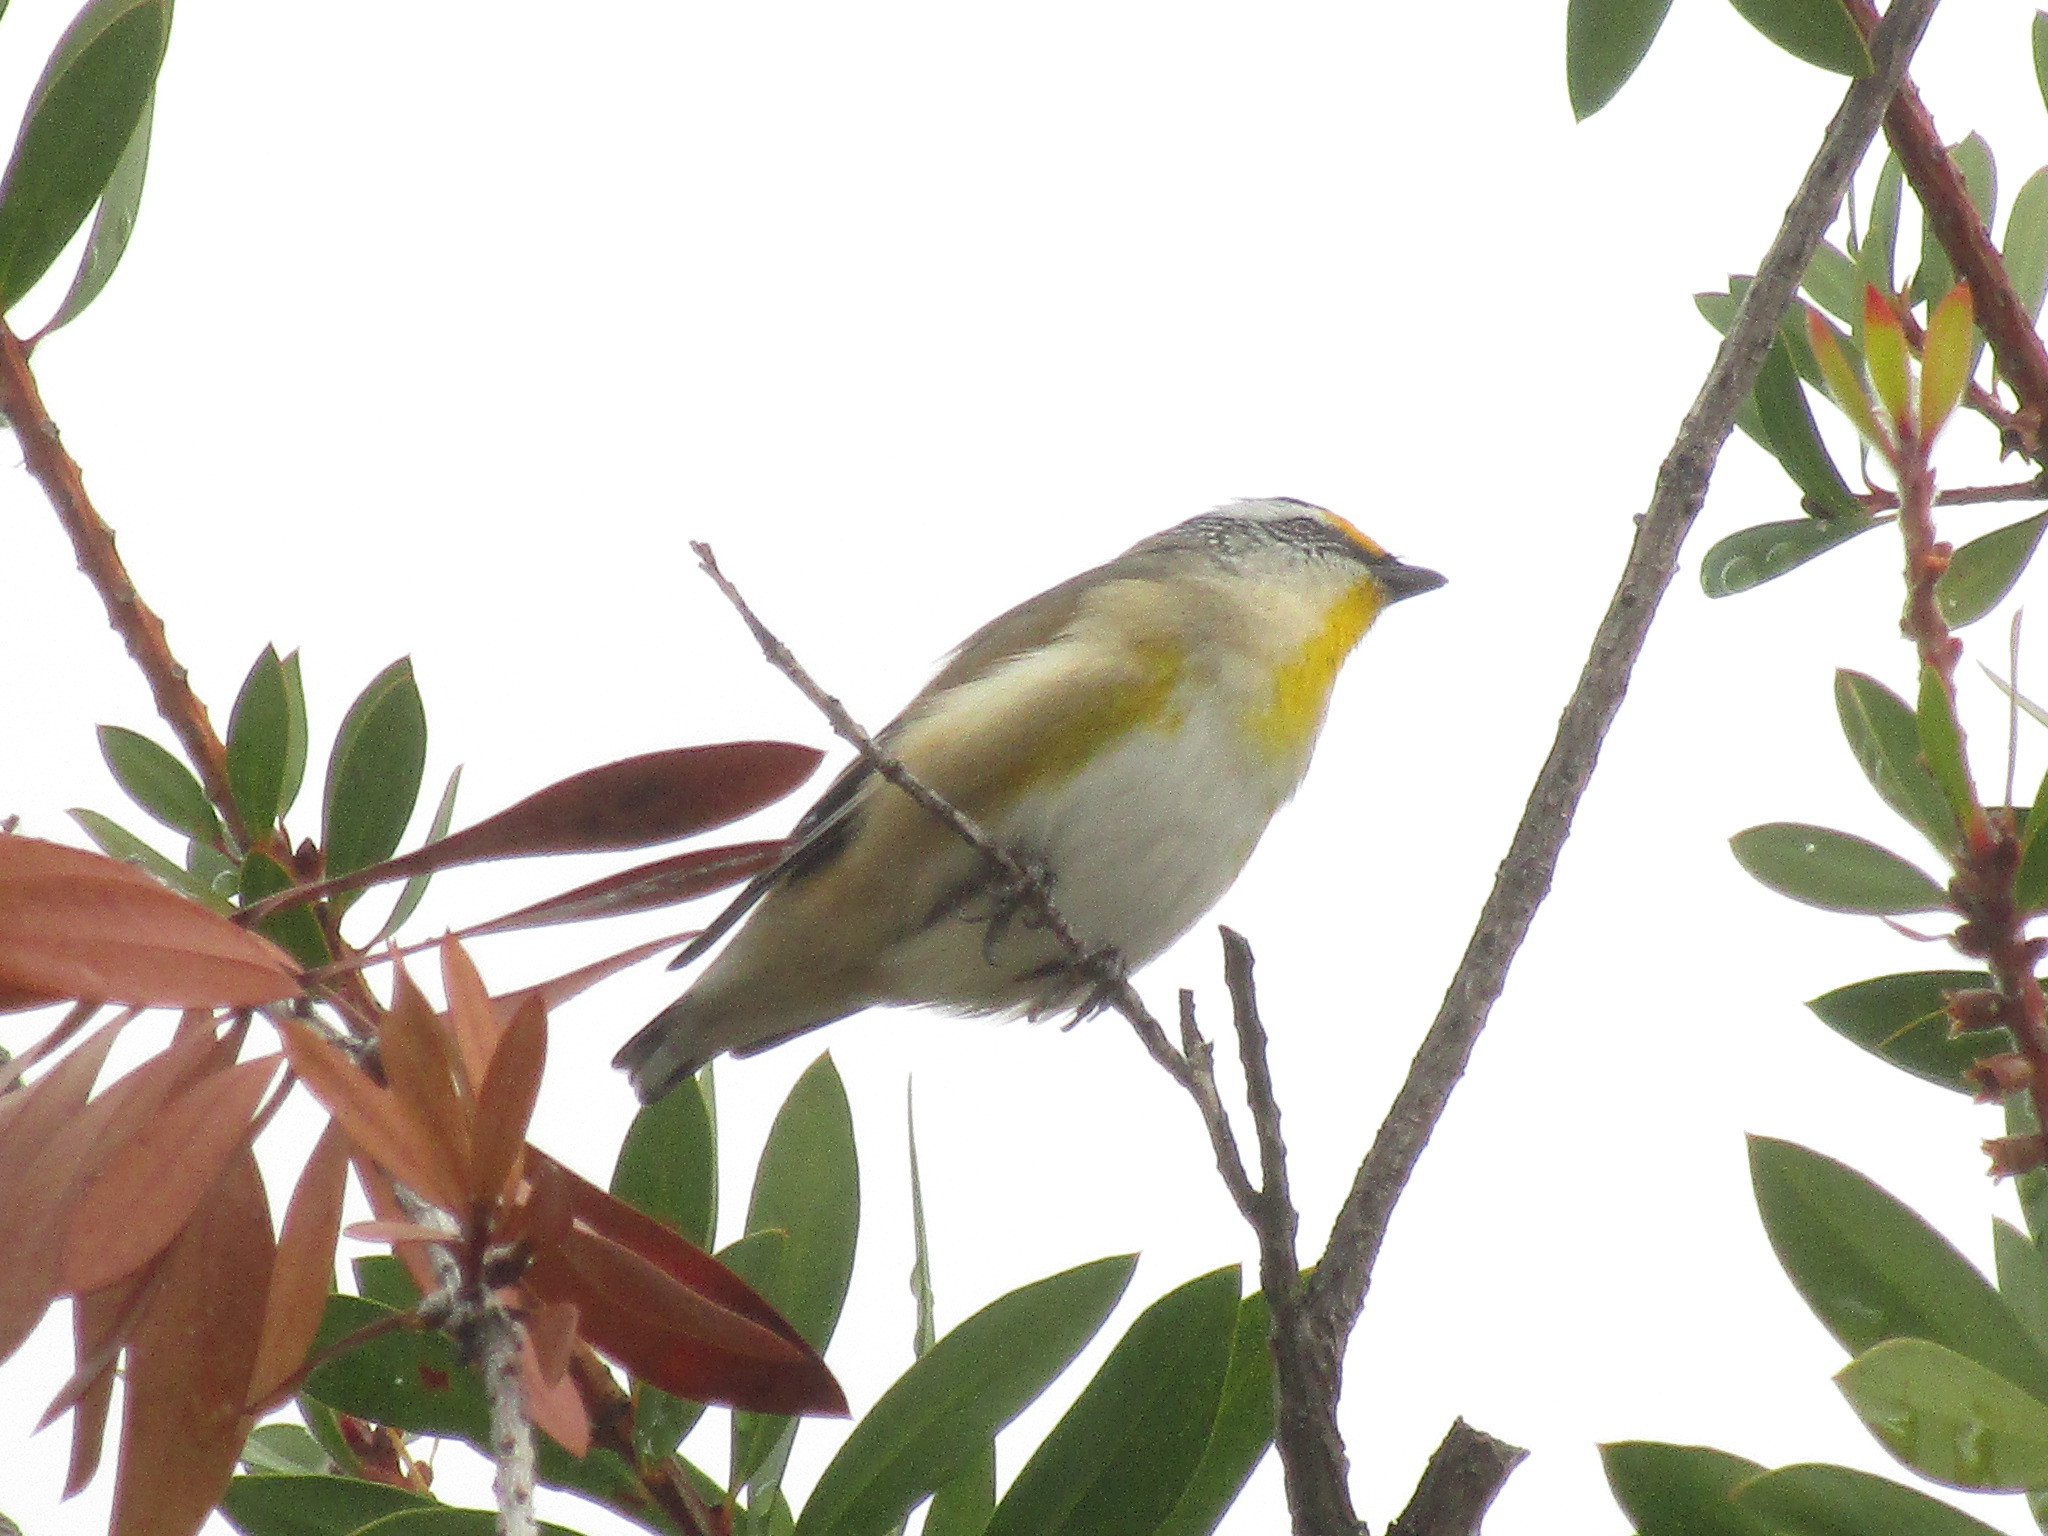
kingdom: Animalia
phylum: Chordata
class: Aves
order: Passeriformes
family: Pardalotidae
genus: Pardalotus
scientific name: Pardalotus striatus
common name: Striated pardalote
